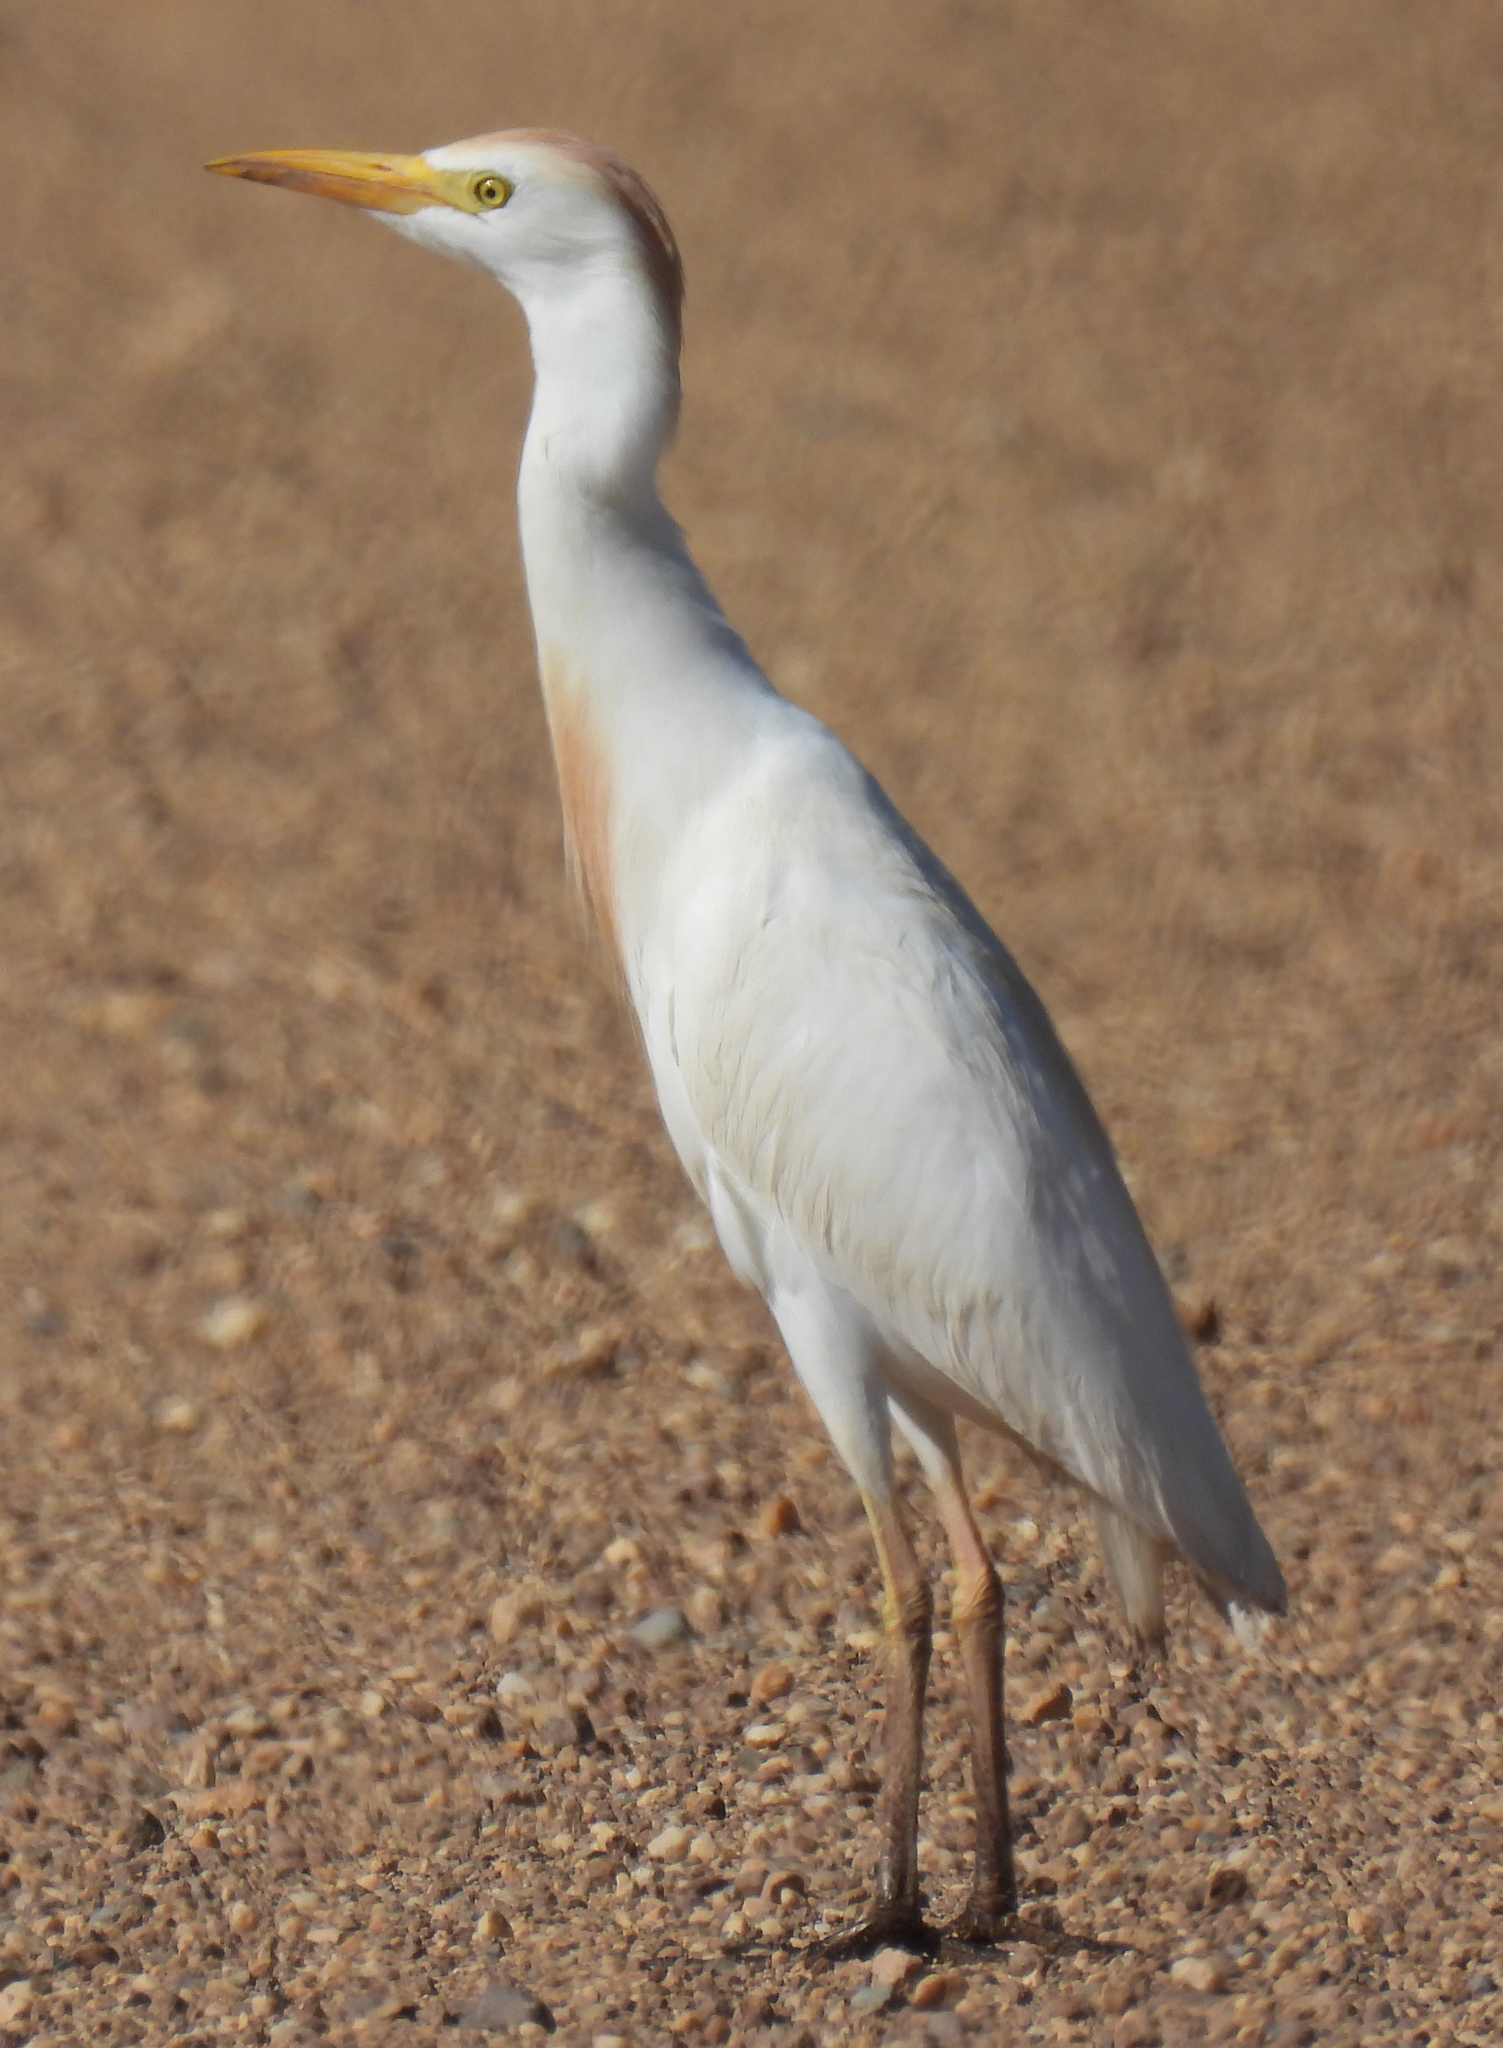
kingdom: Animalia
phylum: Chordata
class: Aves
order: Pelecaniformes
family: Ardeidae
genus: Bubulcus
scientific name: Bubulcus ibis
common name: Cattle egret
